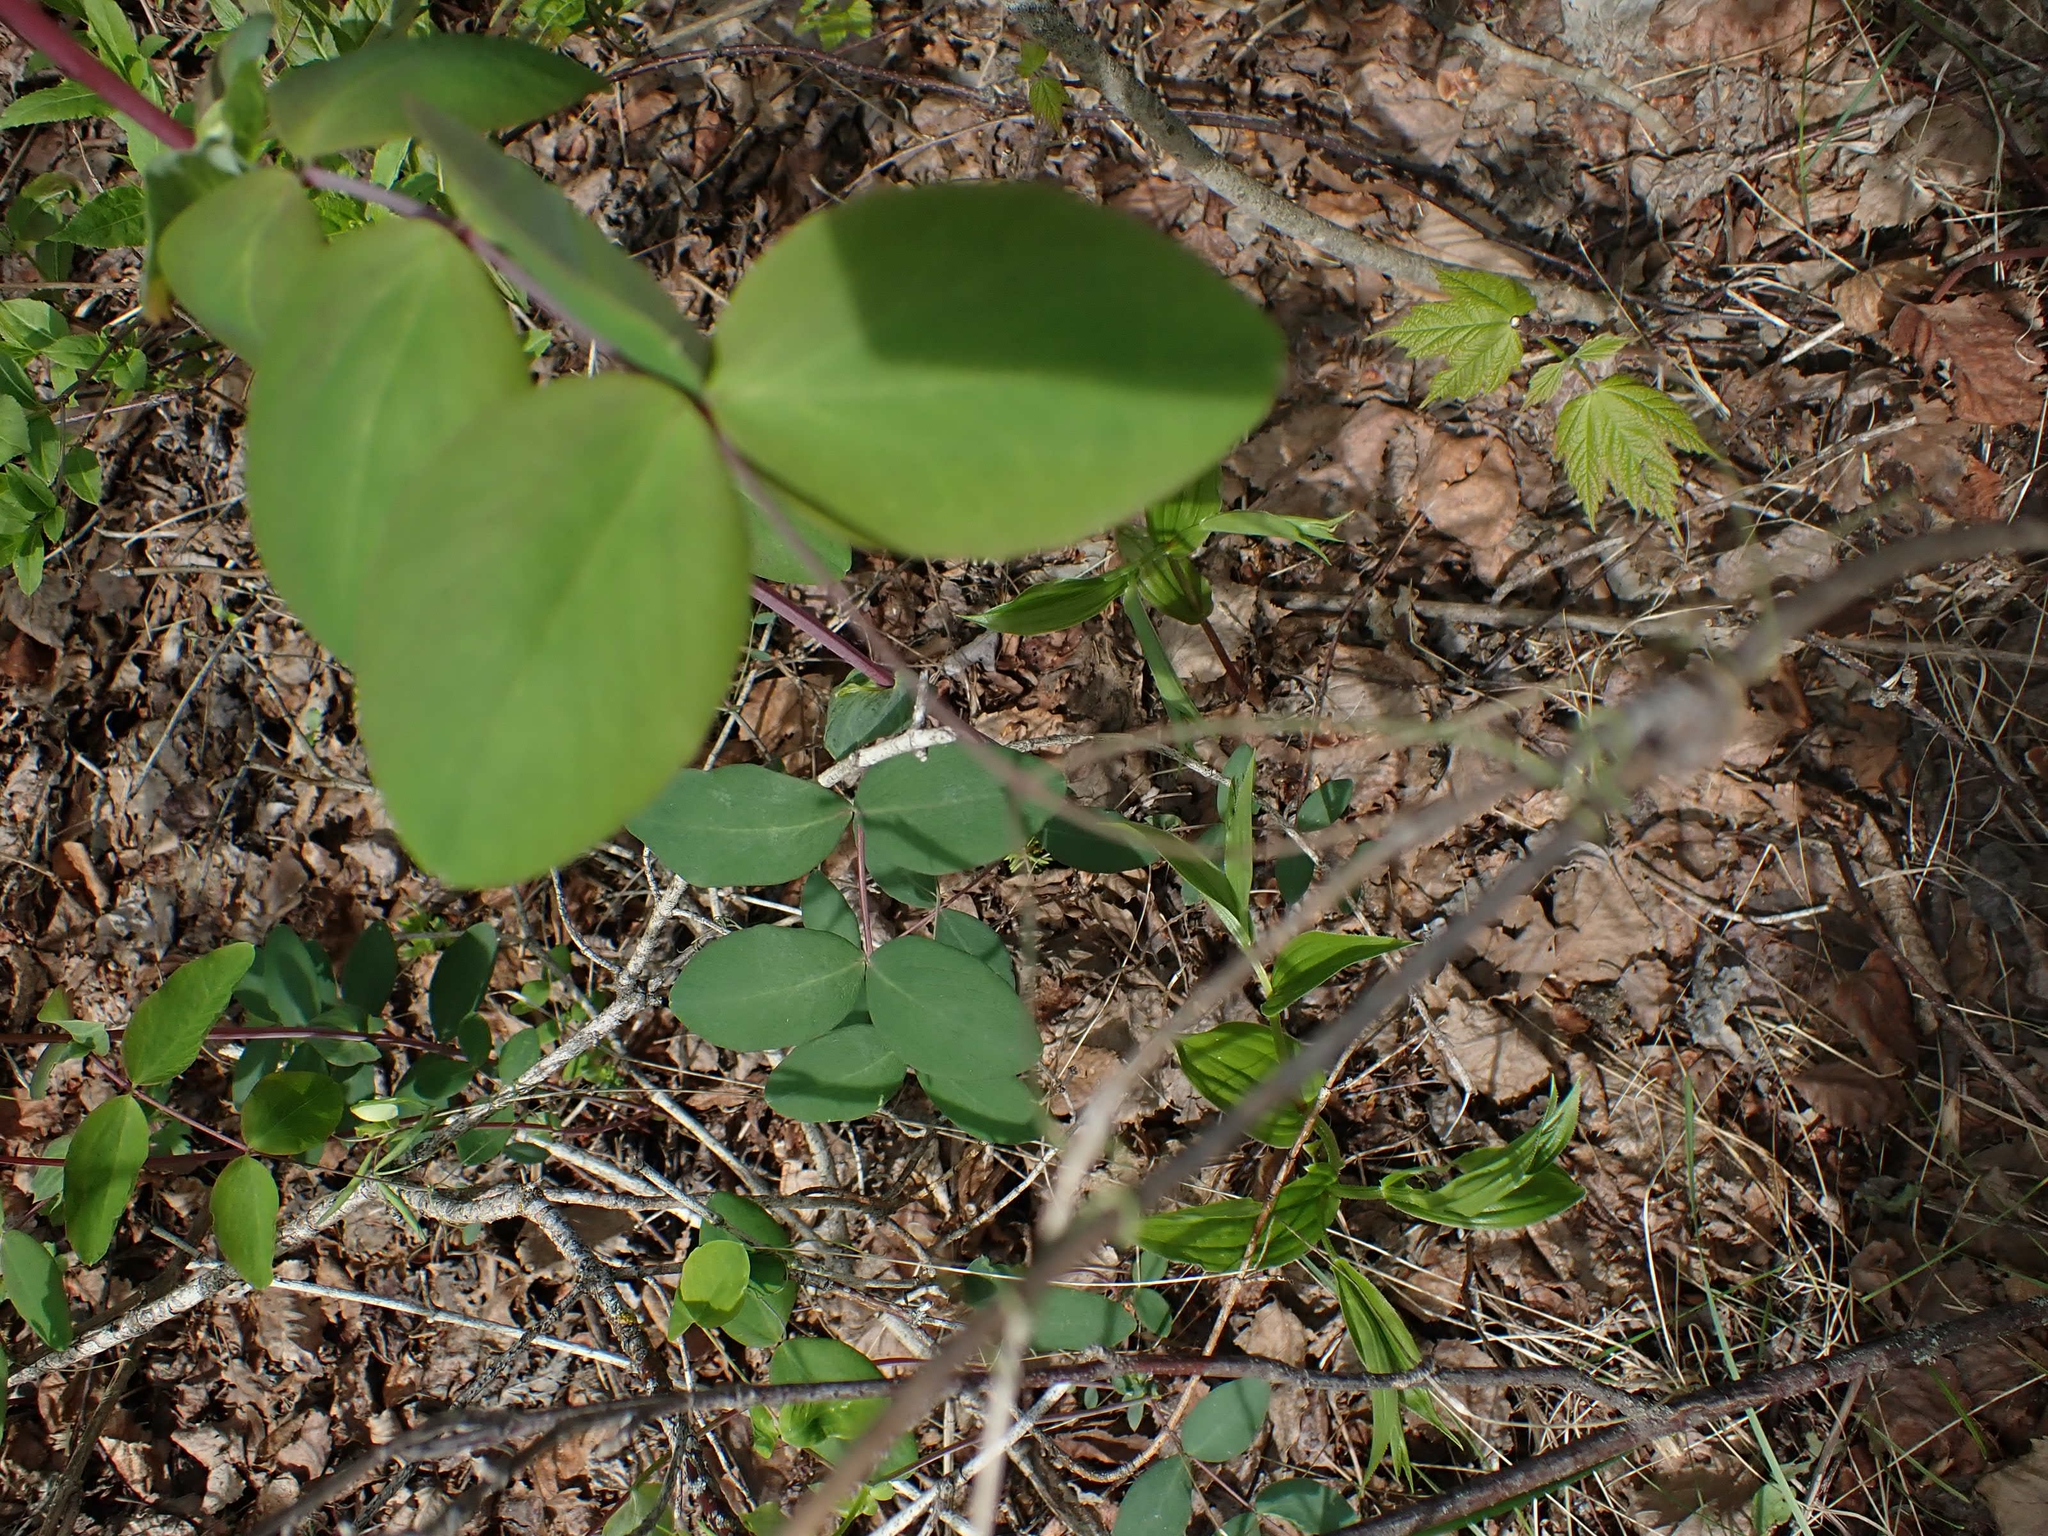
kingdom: Plantae
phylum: Tracheophyta
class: Magnoliopsida
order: Gentianales
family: Apocynaceae
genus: Apocynum
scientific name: Apocynum androsaemifolium
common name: Spreading dogbane
